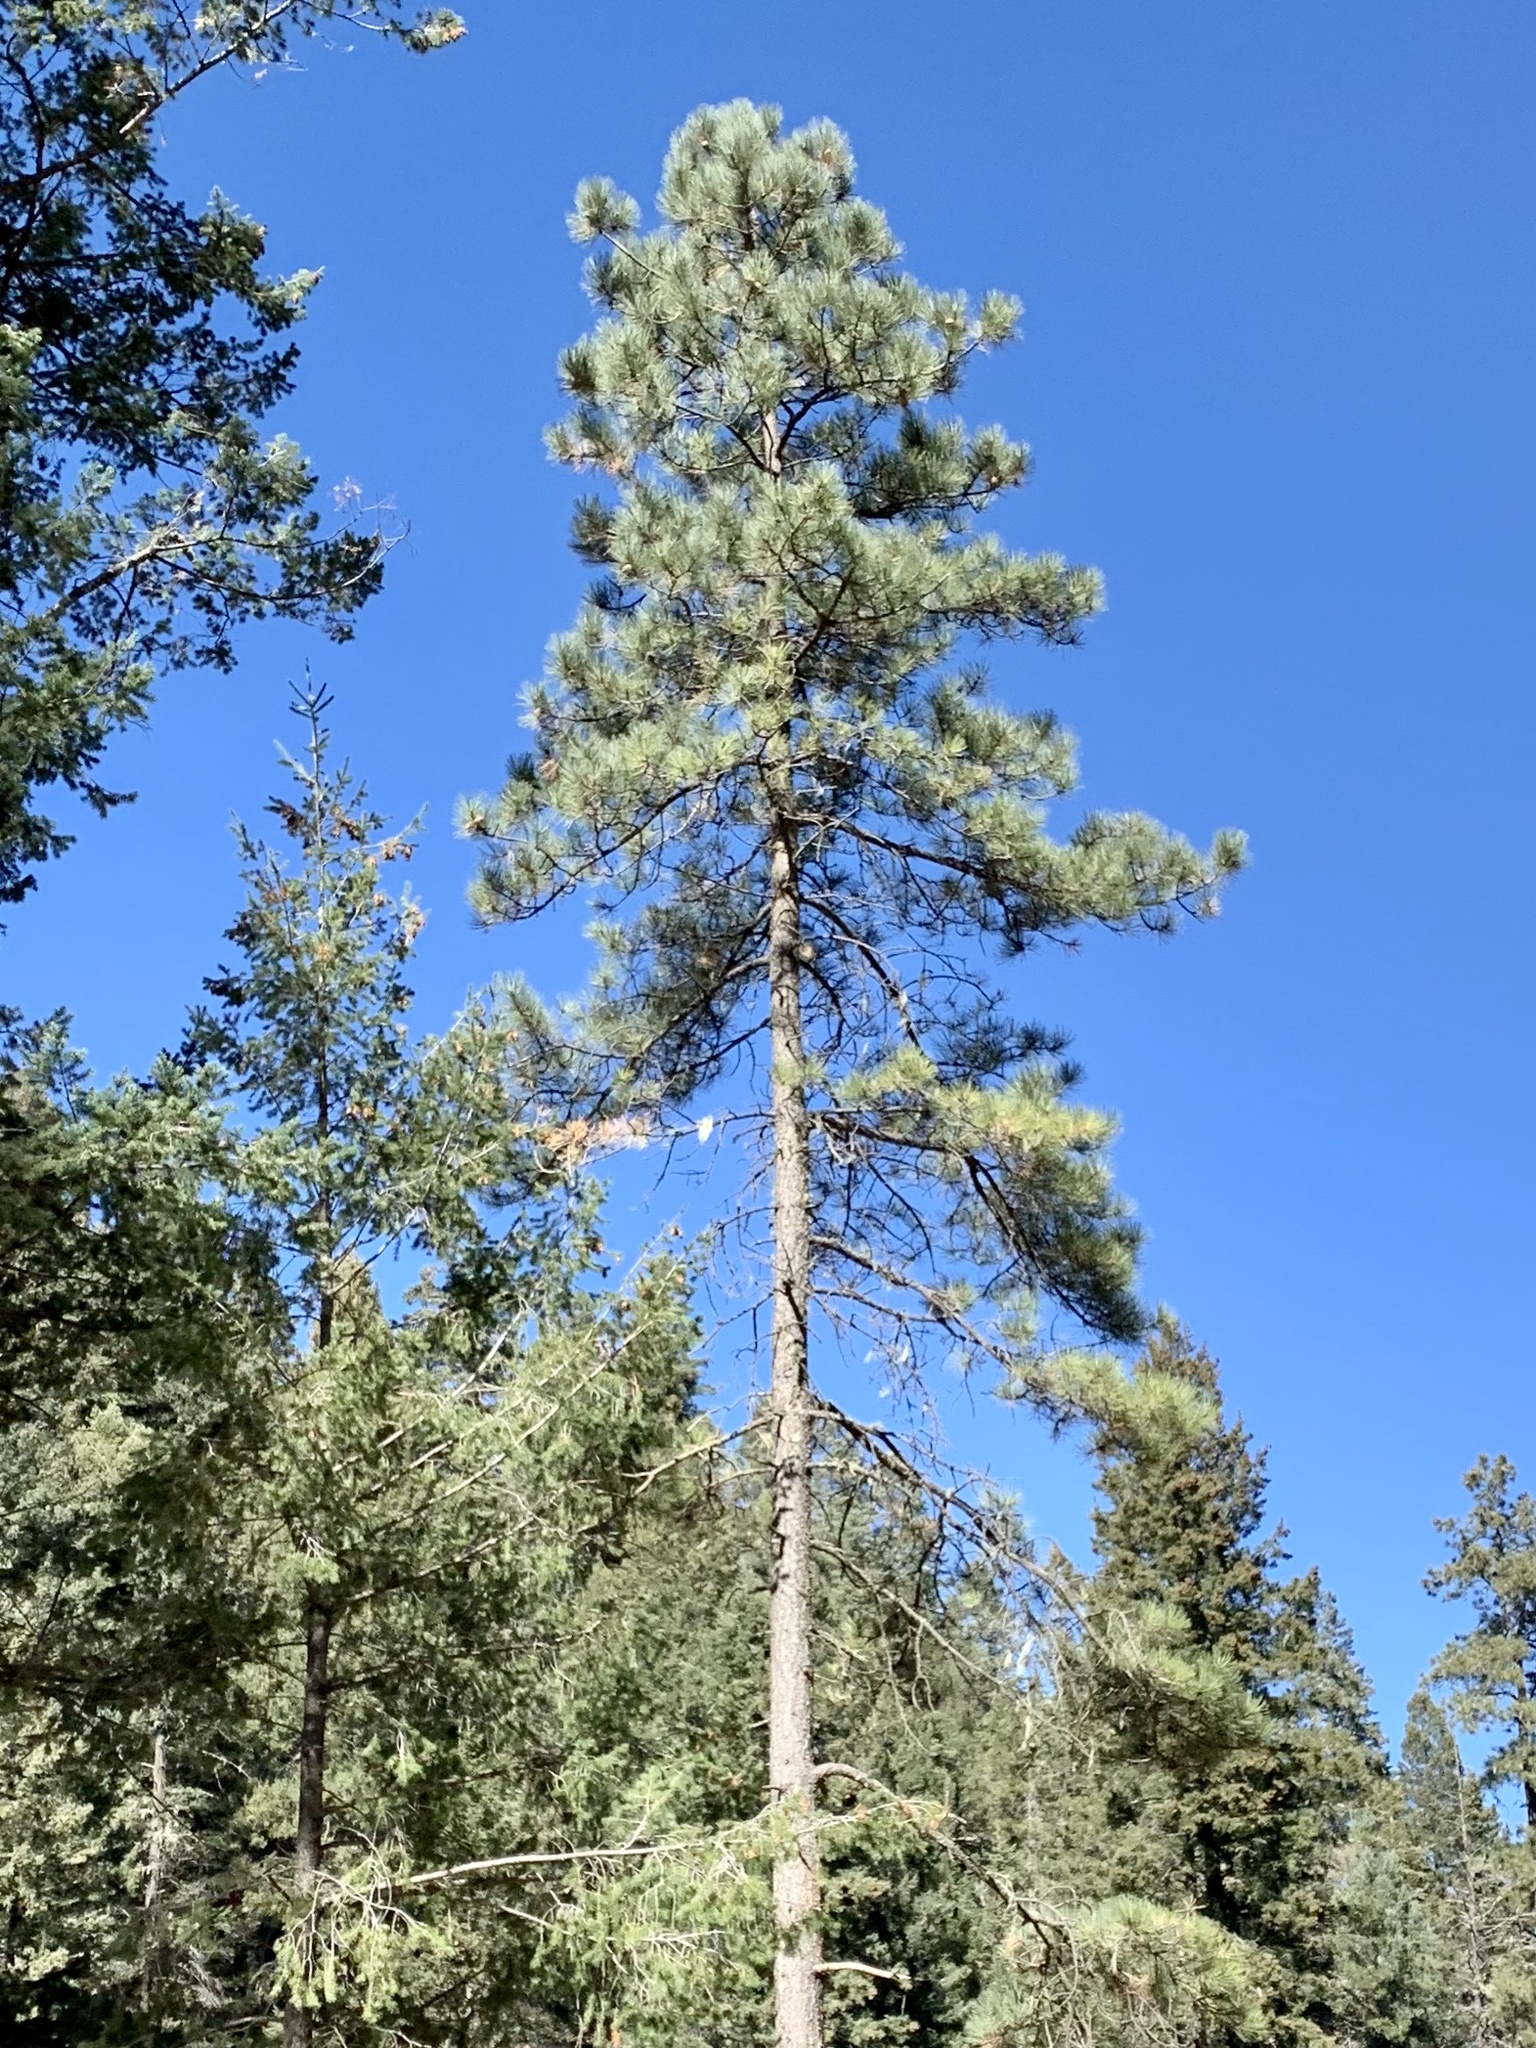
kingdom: Plantae
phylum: Tracheophyta
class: Pinopsida
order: Pinales
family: Pinaceae
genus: Pinus
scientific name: Pinus ponderosa
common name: Western yellow-pine
